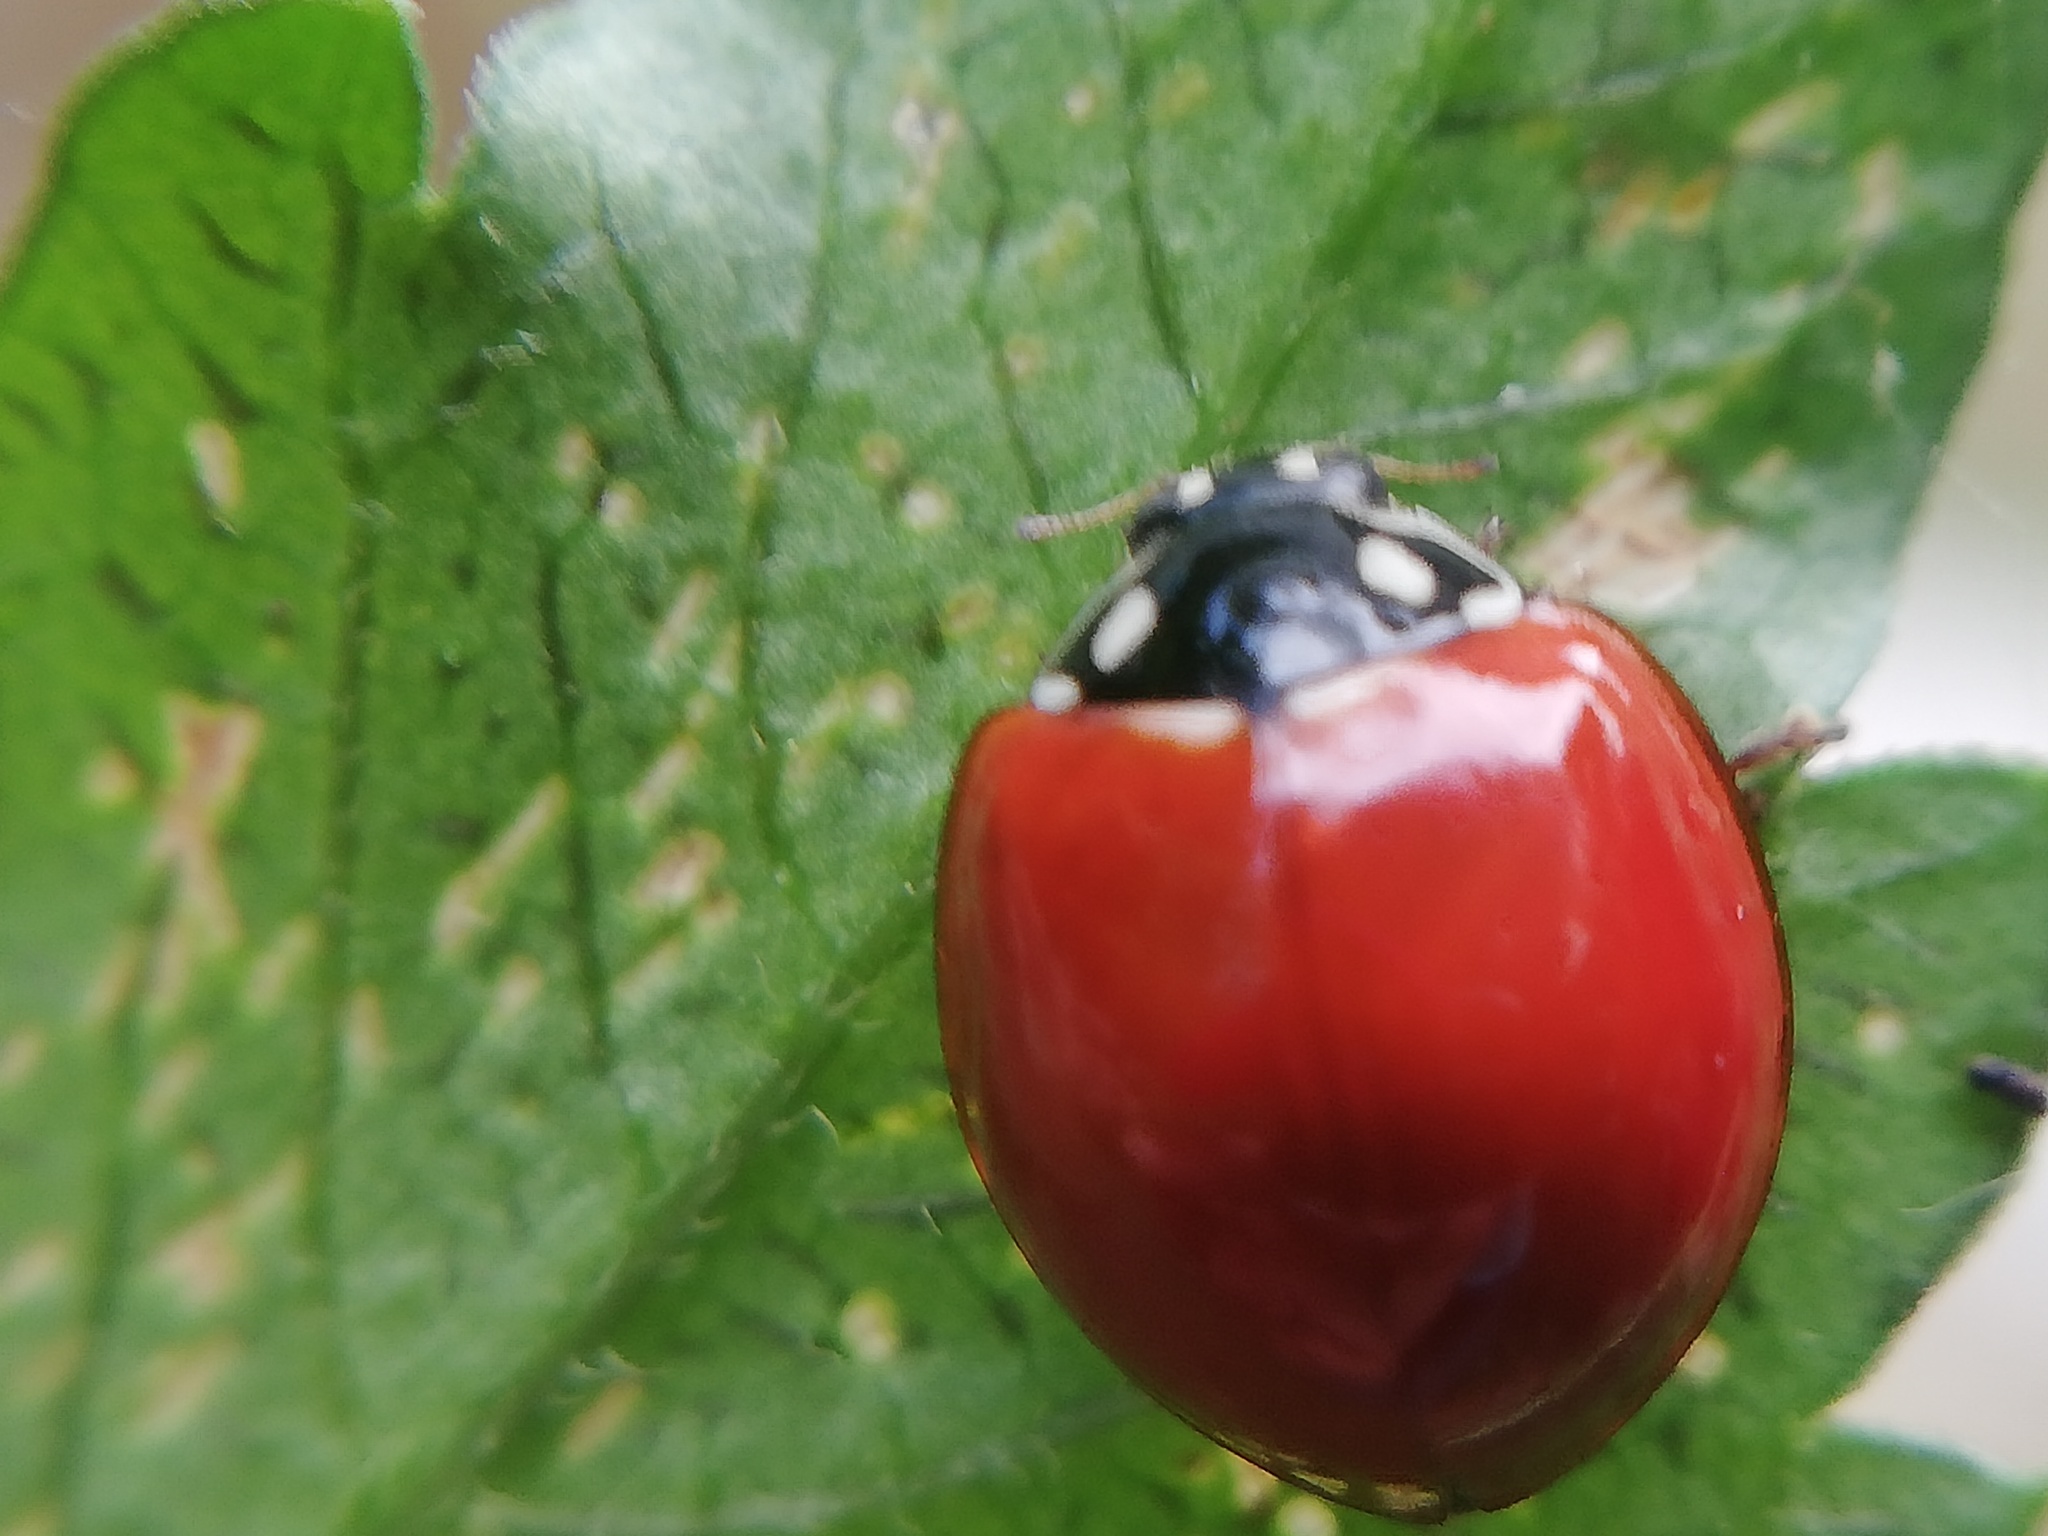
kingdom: Animalia
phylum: Arthropoda
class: Insecta
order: Coleoptera
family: Coccinellidae
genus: Cycloneda
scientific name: Cycloneda sanguinea
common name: Ladybird beetle
